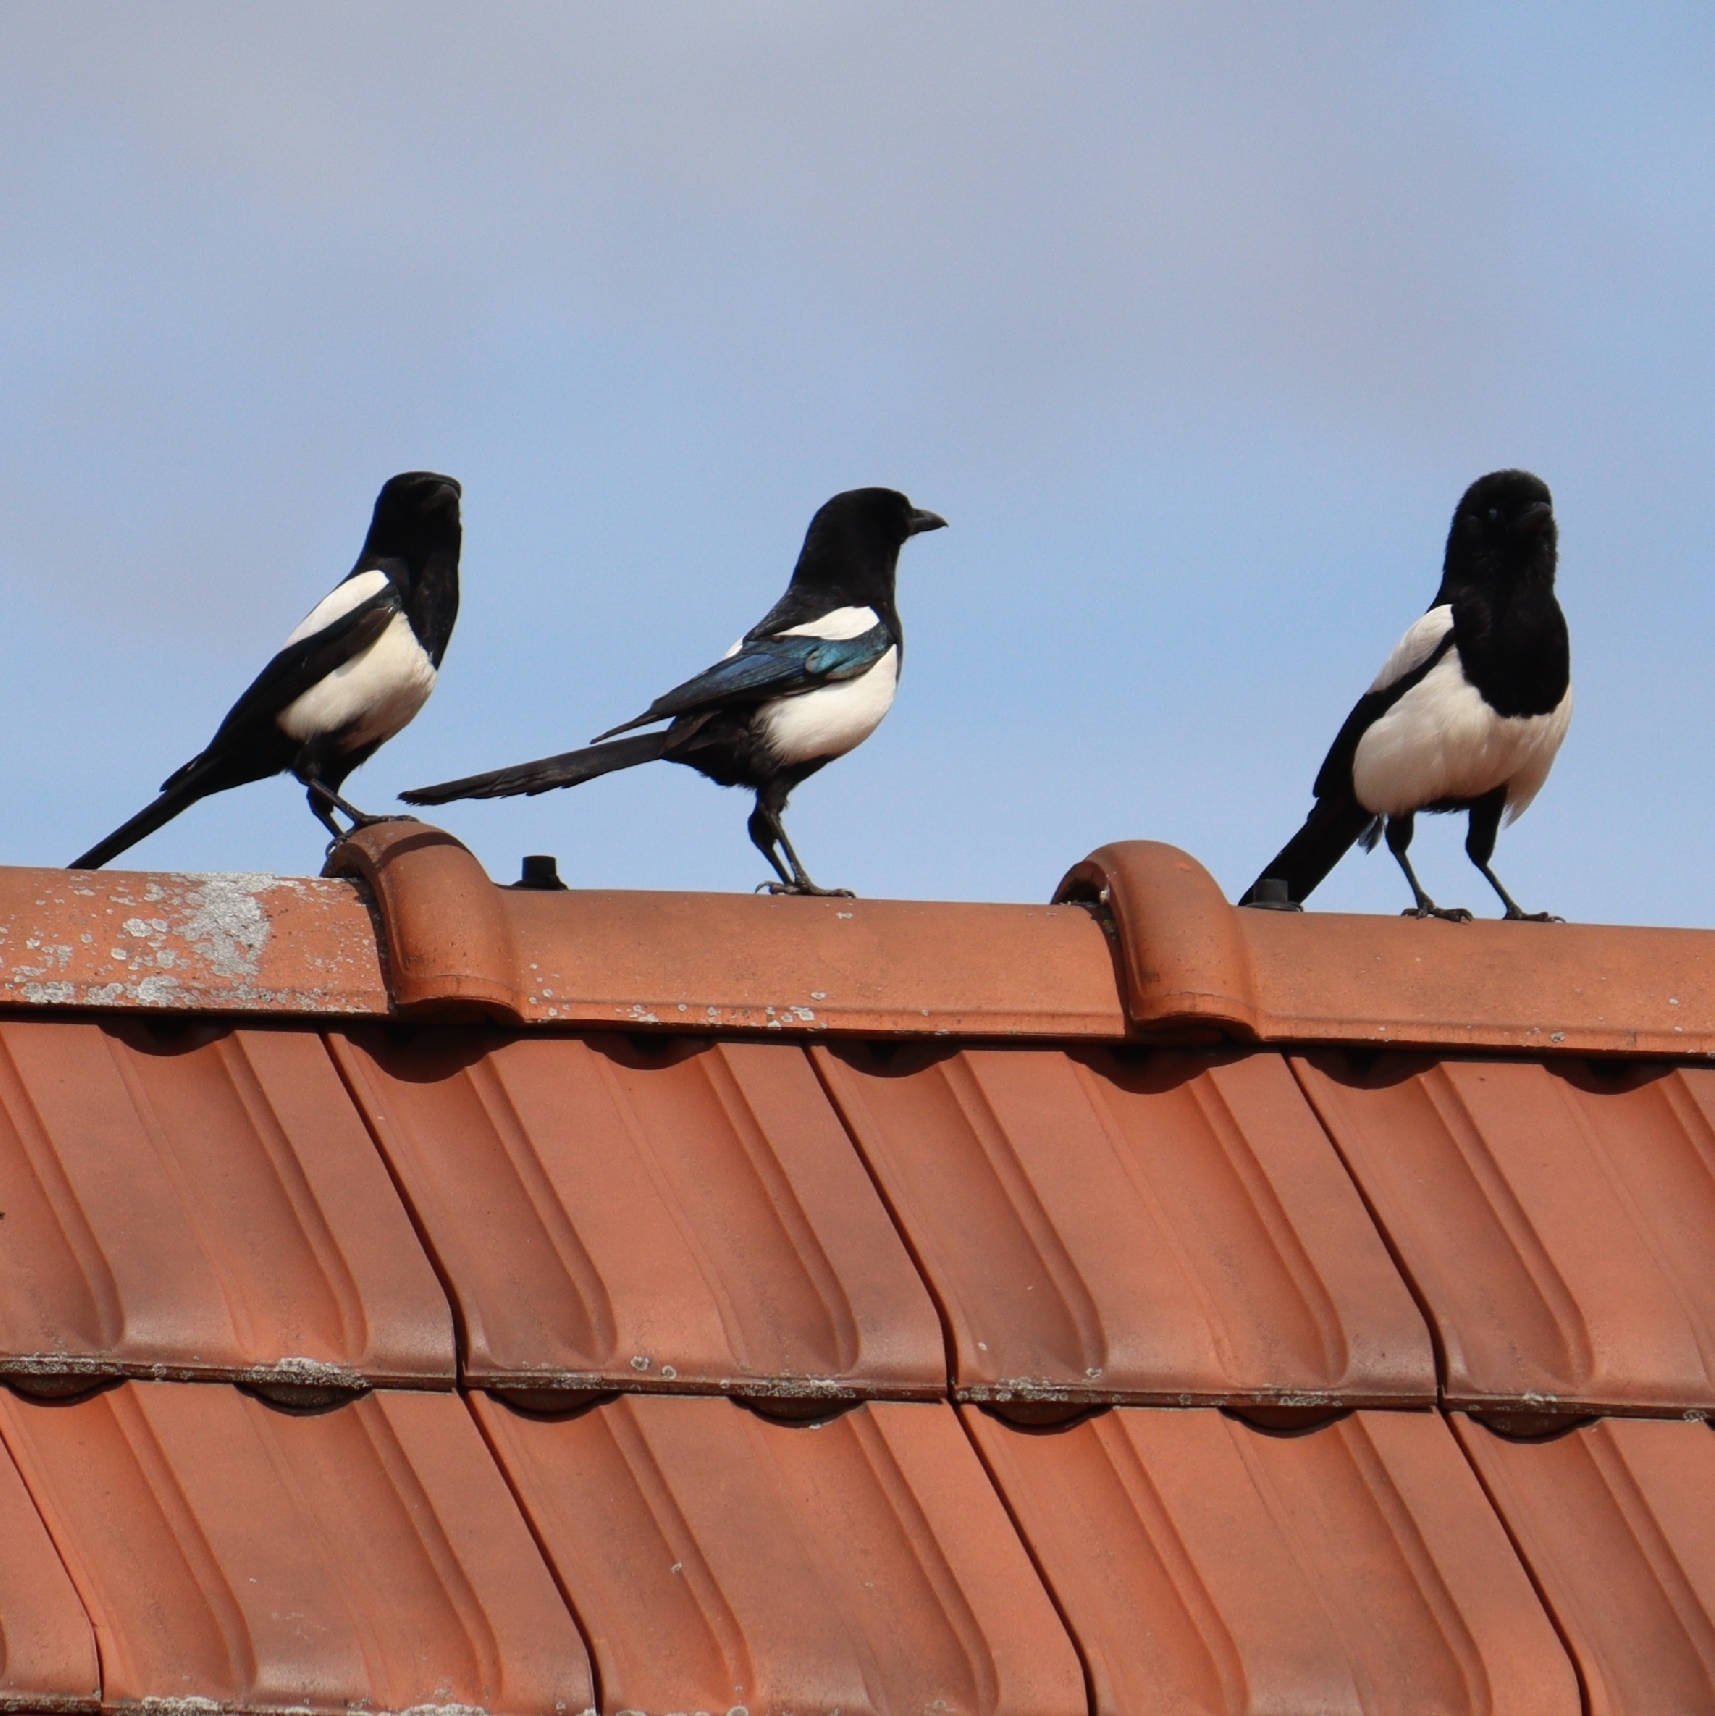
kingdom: Animalia
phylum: Chordata
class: Aves
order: Passeriformes
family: Corvidae
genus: Pica
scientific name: Pica pica
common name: Eurasian magpie
